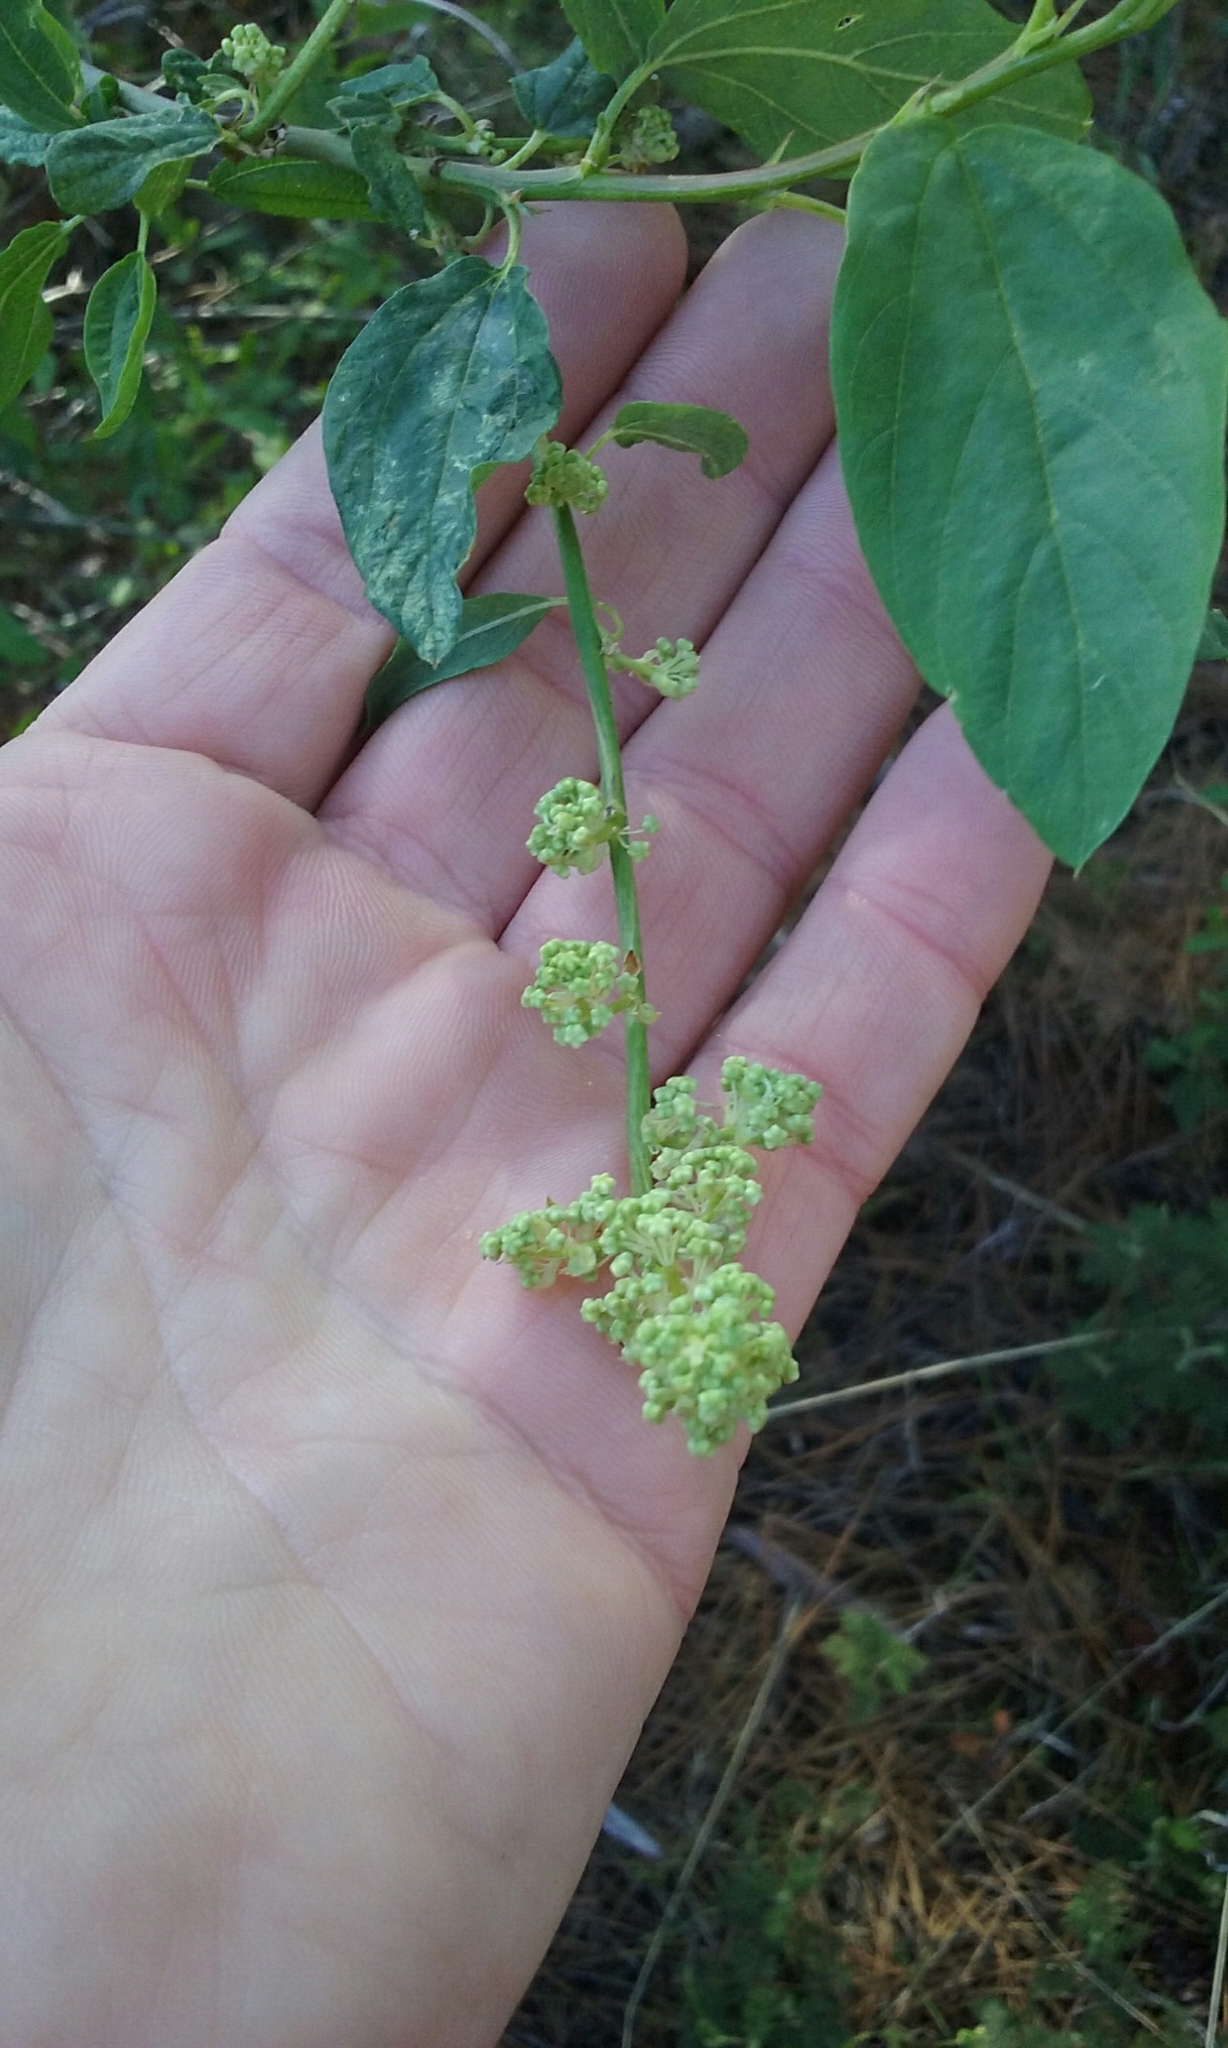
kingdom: Plantae
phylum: Tracheophyta
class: Magnoliopsida
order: Rosales
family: Rhamnaceae
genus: Ceanothus
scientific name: Ceanothus integerrimus
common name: Deerbrush ceanothus
